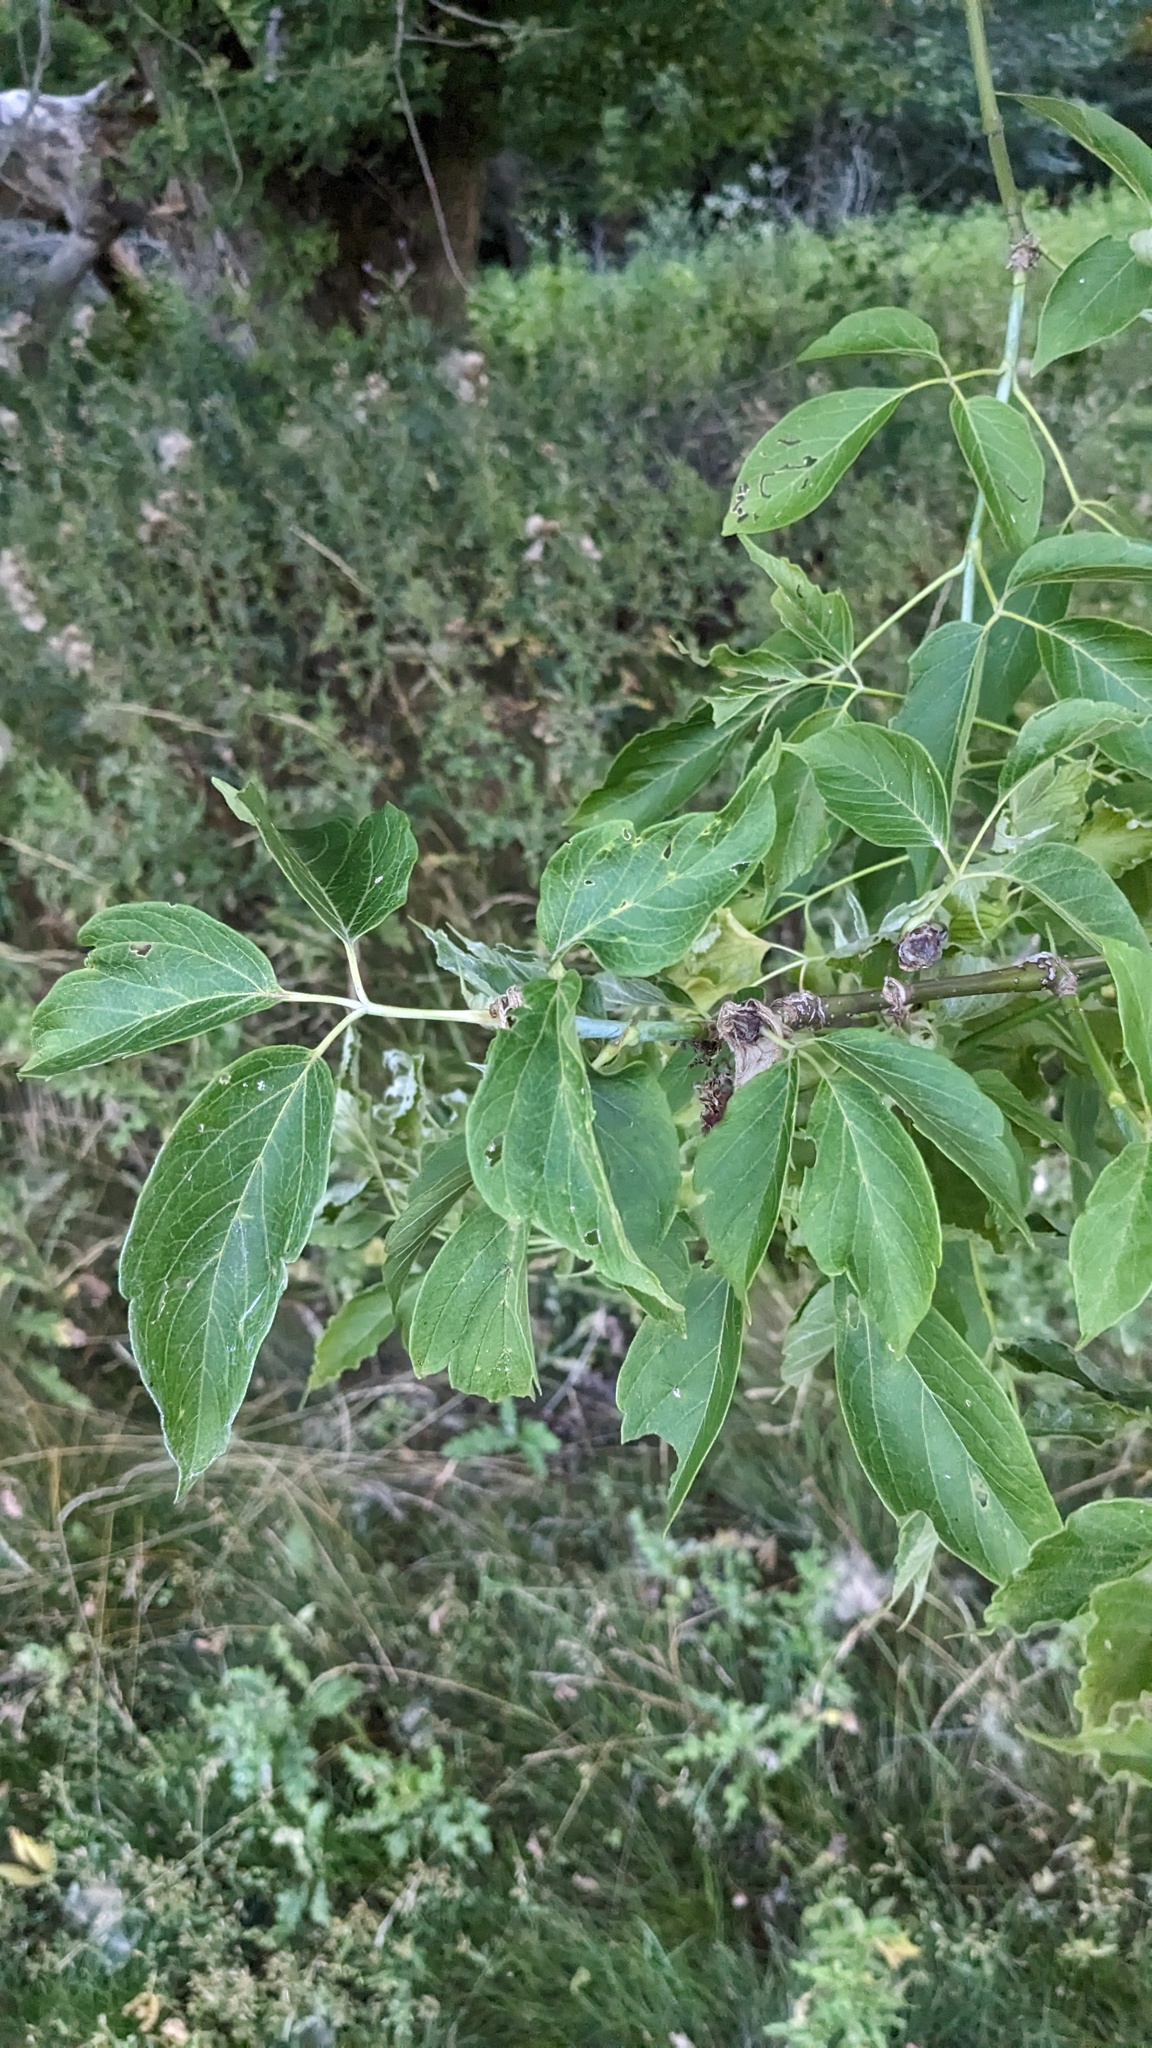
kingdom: Plantae
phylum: Tracheophyta
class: Magnoliopsida
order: Sapindales
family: Sapindaceae
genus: Acer
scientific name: Acer negundo
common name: Ashleaf maple
